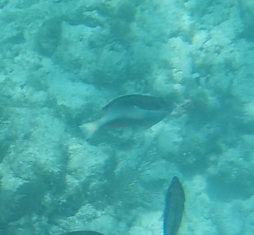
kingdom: Animalia
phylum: Chordata
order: Perciformes
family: Scaridae
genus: Sparisoma
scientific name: Sparisoma aurofrenatum
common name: Redband parrotfish
